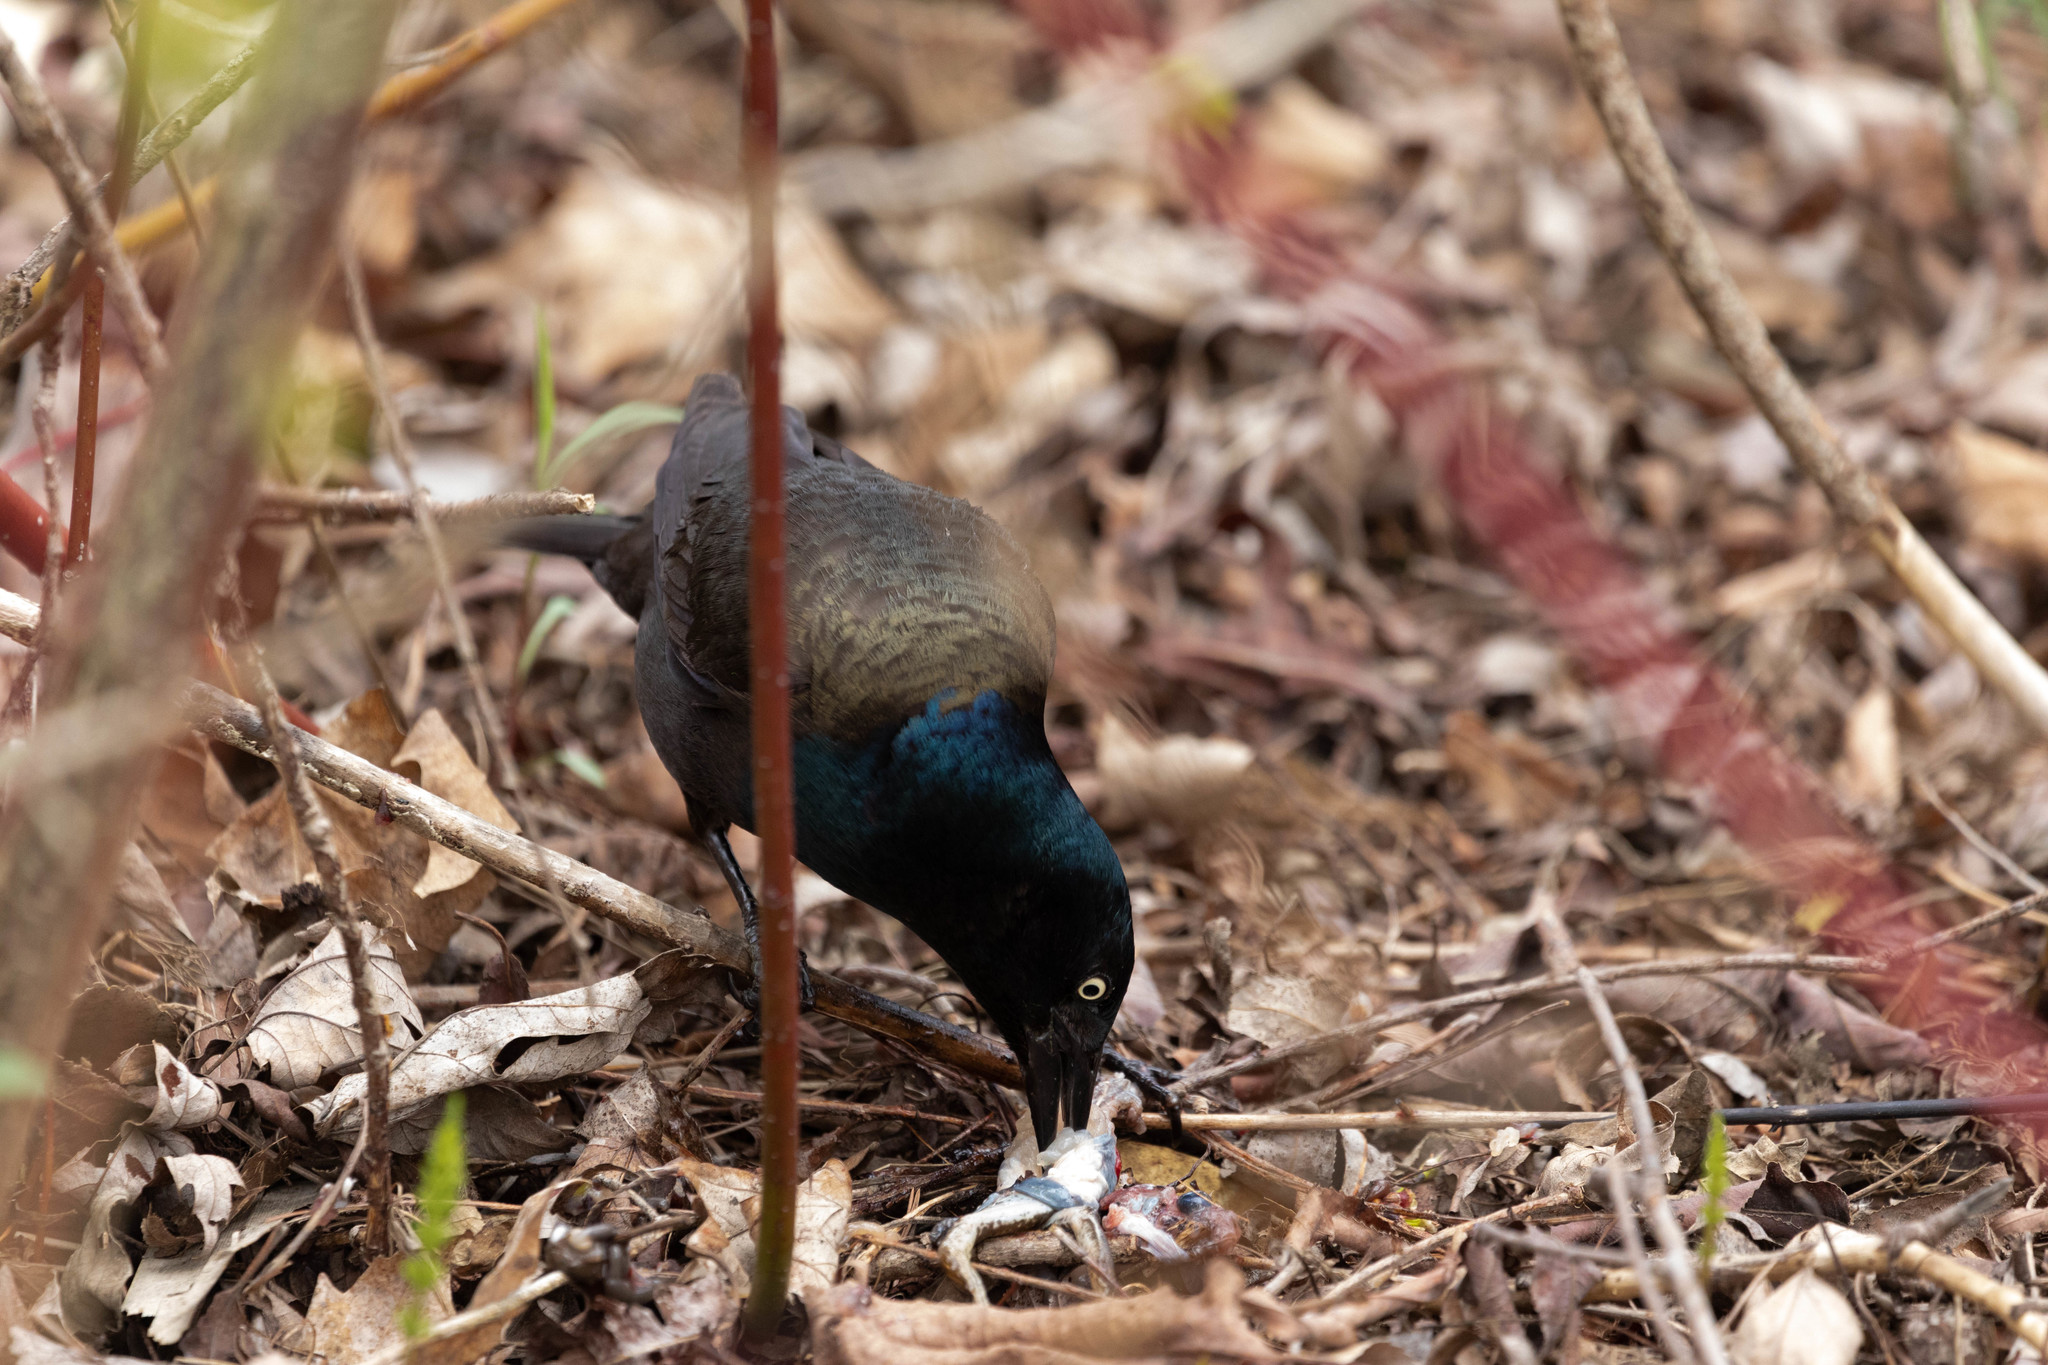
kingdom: Animalia
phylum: Chordata
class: Aves
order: Passeriformes
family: Icteridae
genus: Quiscalus
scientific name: Quiscalus quiscula
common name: Common grackle
